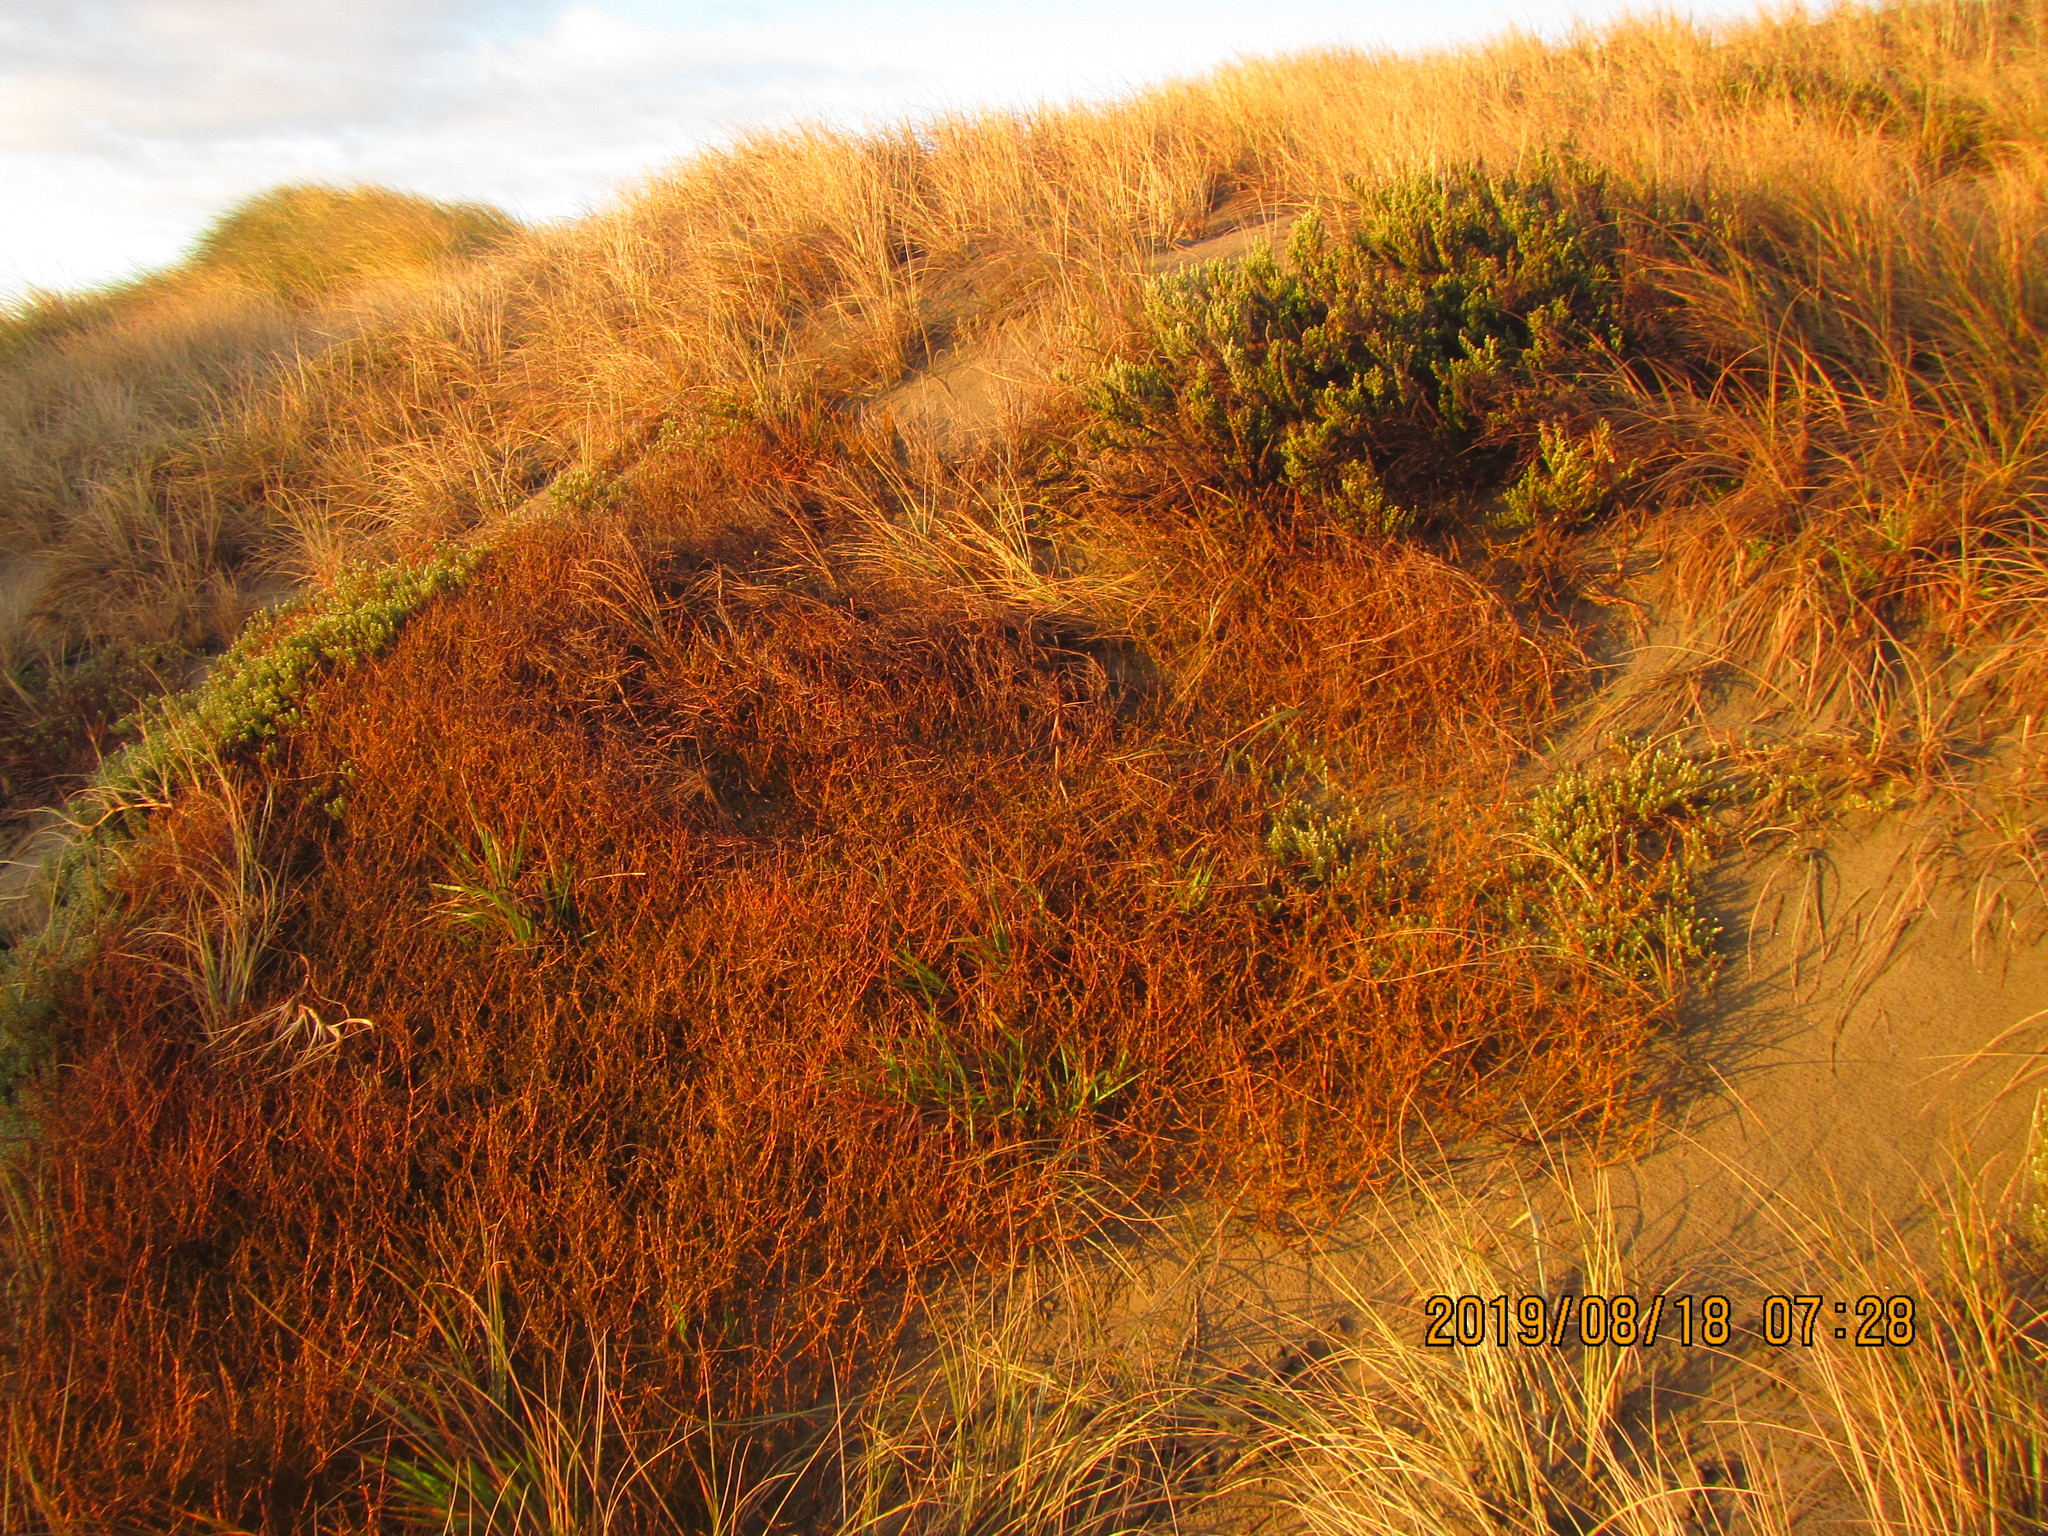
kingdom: Plantae
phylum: Tracheophyta
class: Liliopsida
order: Poales
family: Poaceae
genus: Lachnagrostis
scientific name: Lachnagrostis billardierei
